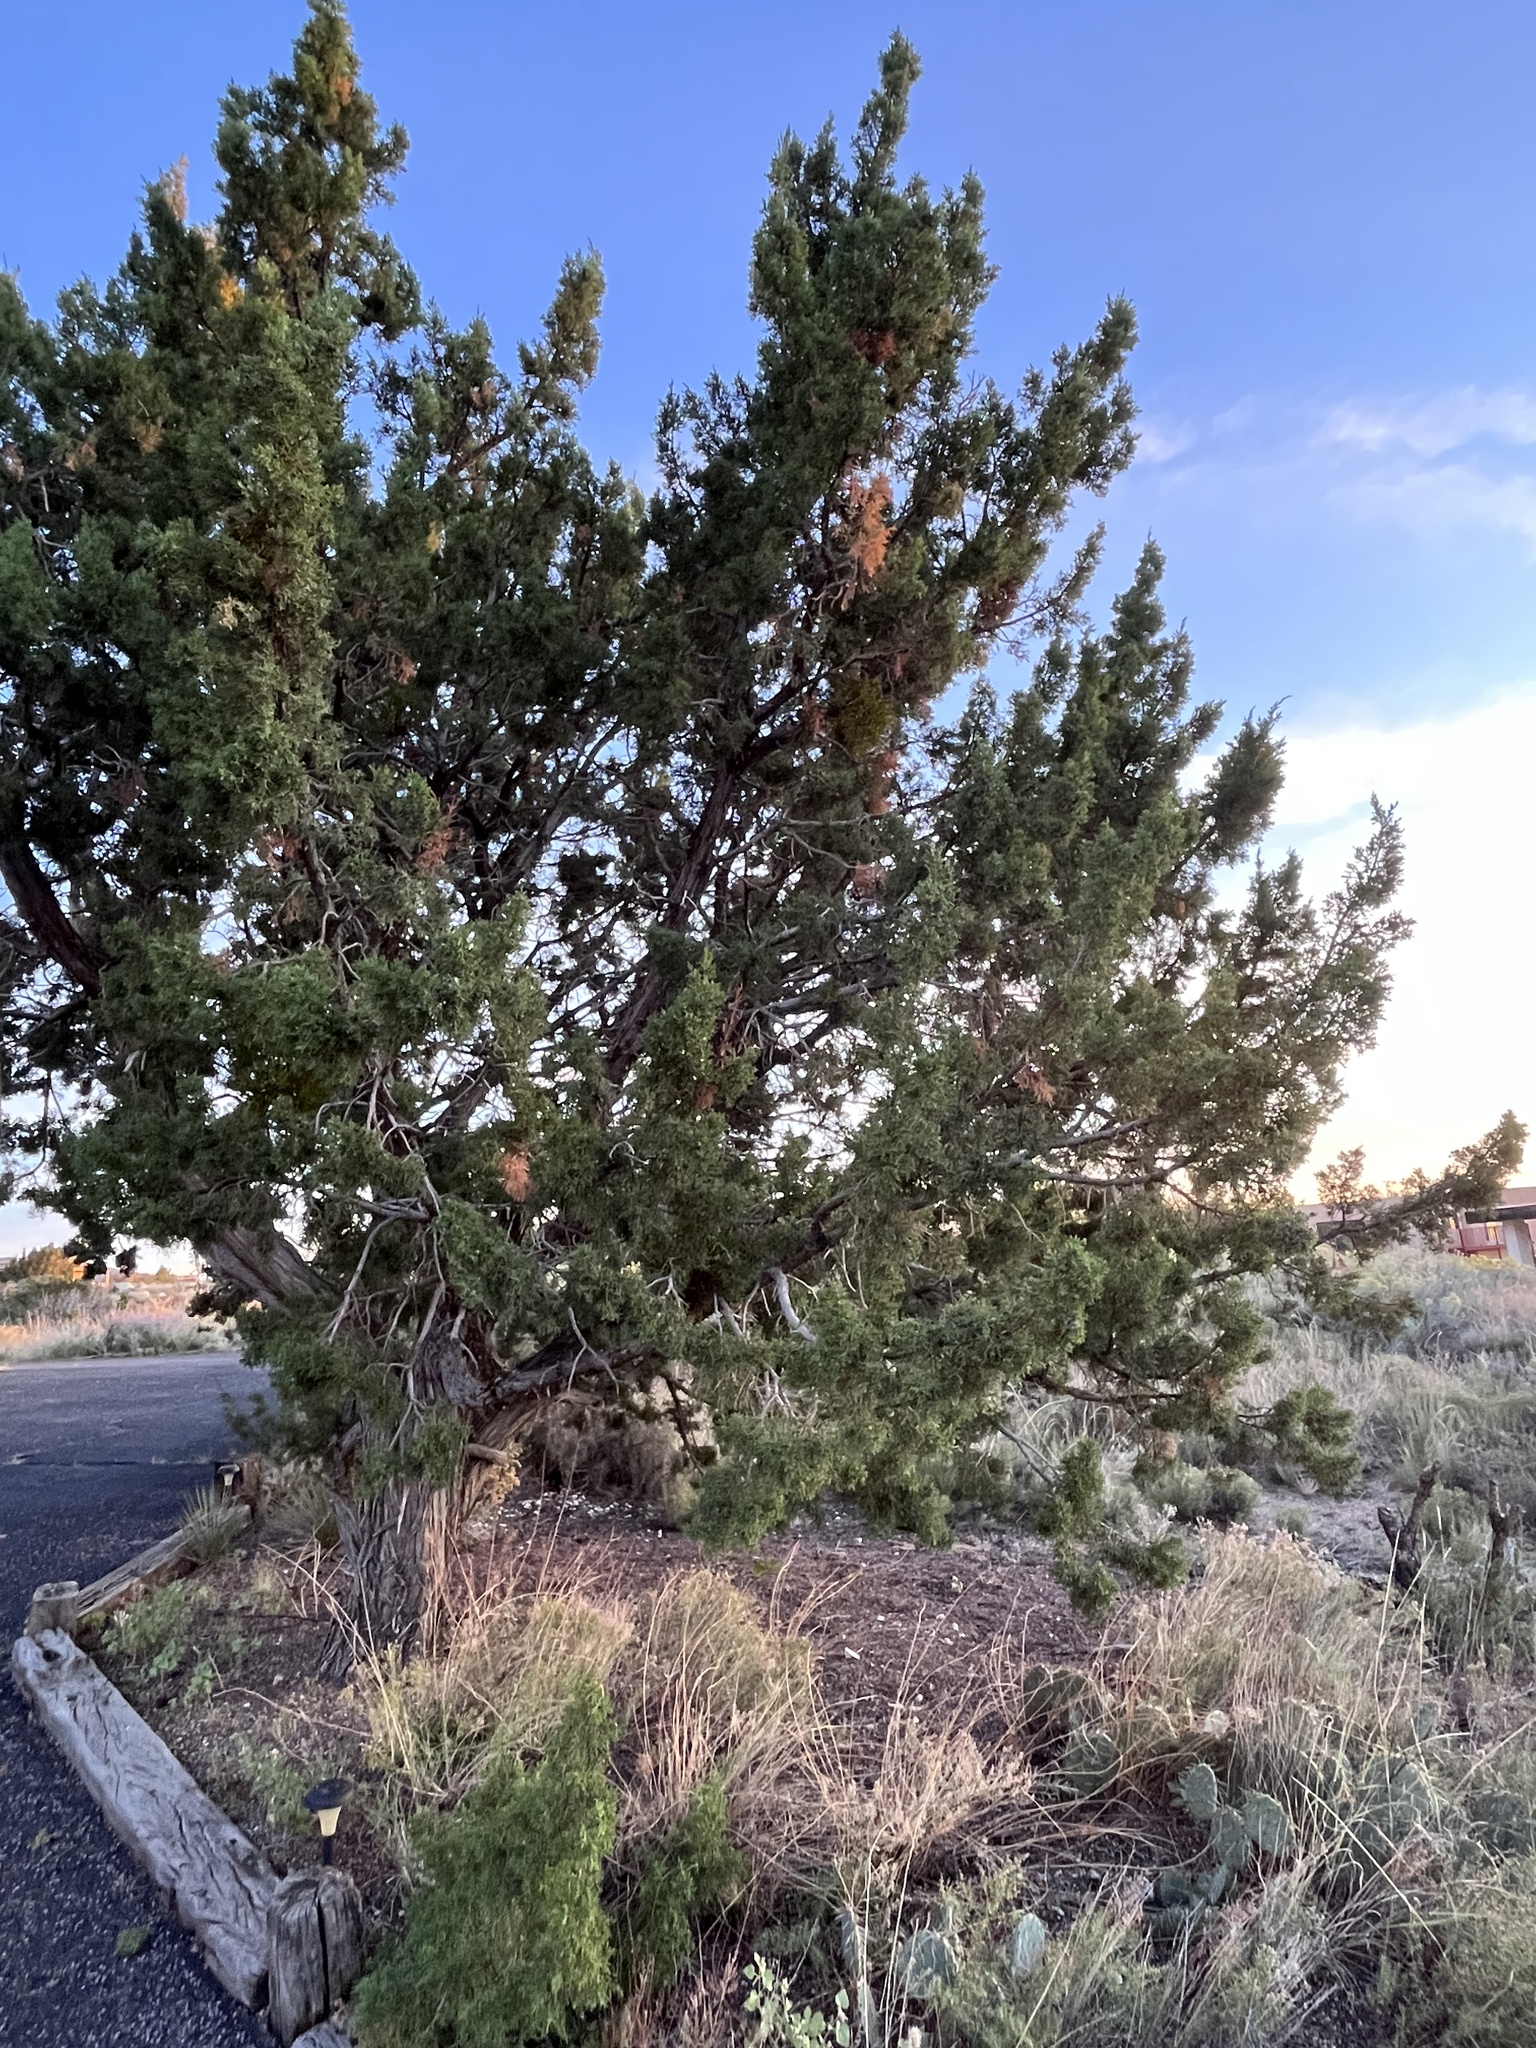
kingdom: Plantae
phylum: Tracheophyta
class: Pinopsida
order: Pinales
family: Cupressaceae
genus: Juniperus
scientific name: Juniperus monosperma
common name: One-seed juniper
